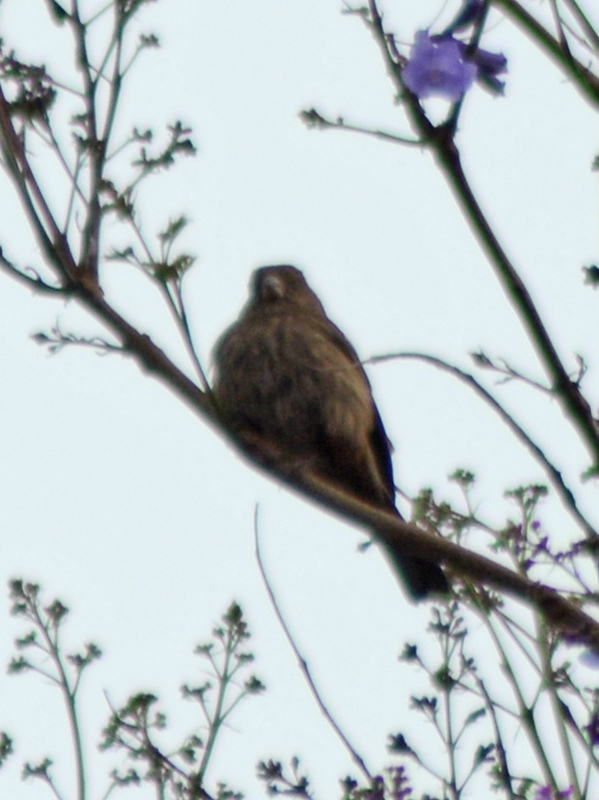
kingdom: Animalia
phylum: Chordata
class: Aves
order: Passeriformes
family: Fringillidae
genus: Haemorhous
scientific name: Haemorhous mexicanus
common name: House finch
